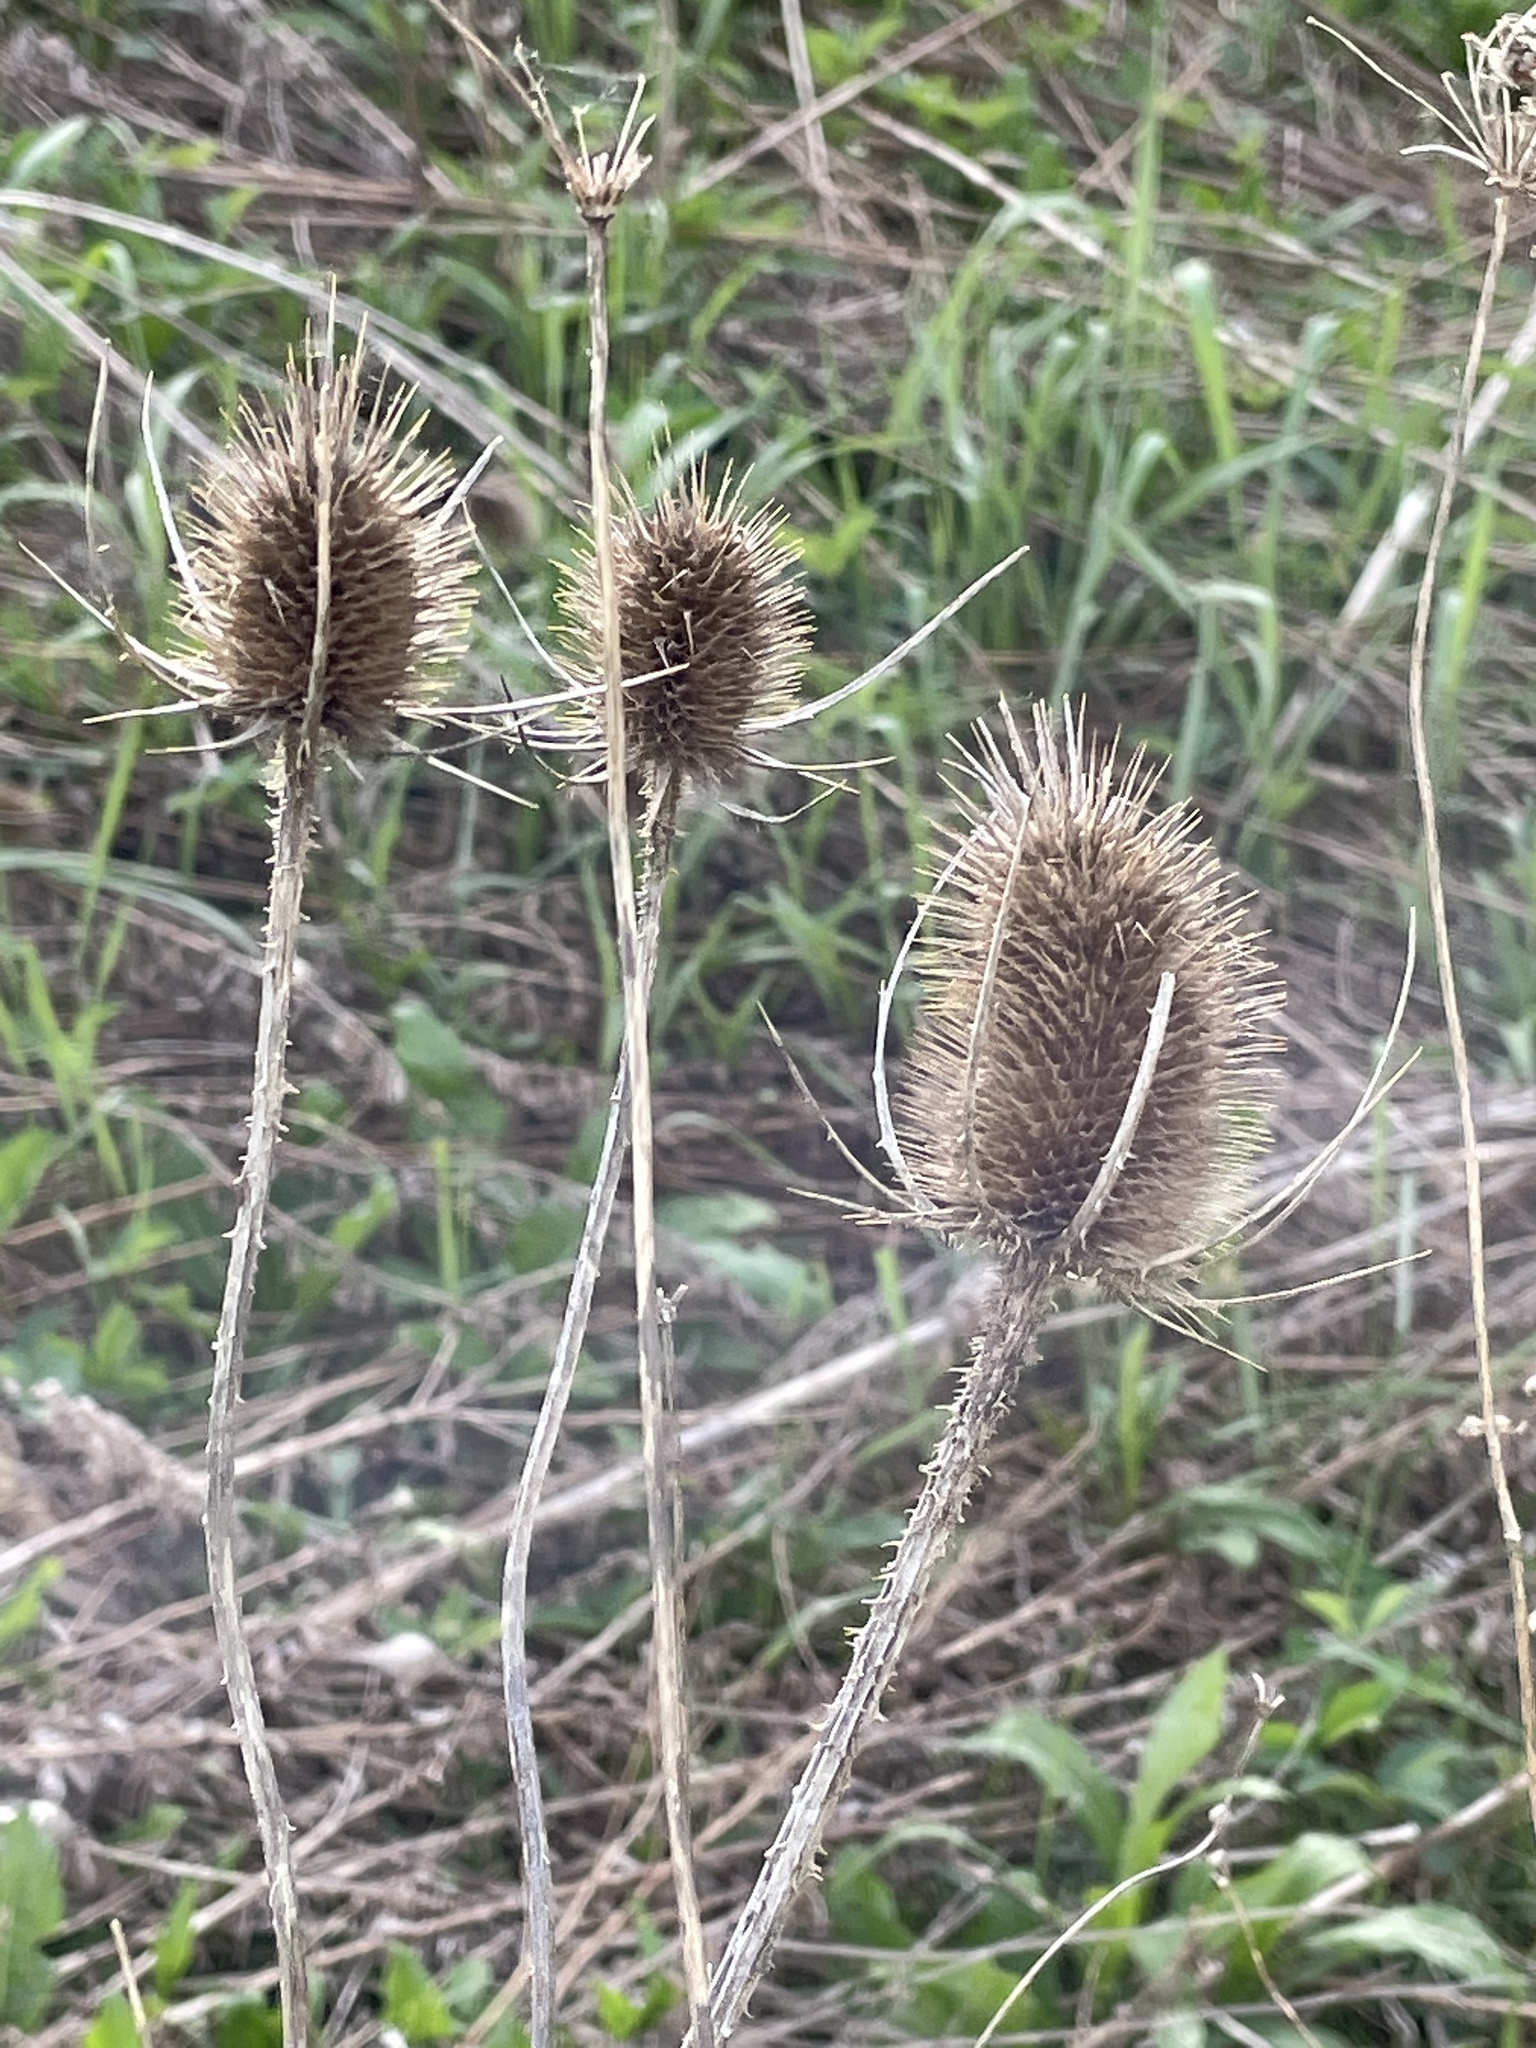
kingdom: Plantae
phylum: Tracheophyta
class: Magnoliopsida
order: Dipsacales
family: Caprifoliaceae
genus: Dipsacus
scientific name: Dipsacus fullonum
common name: Teasel
